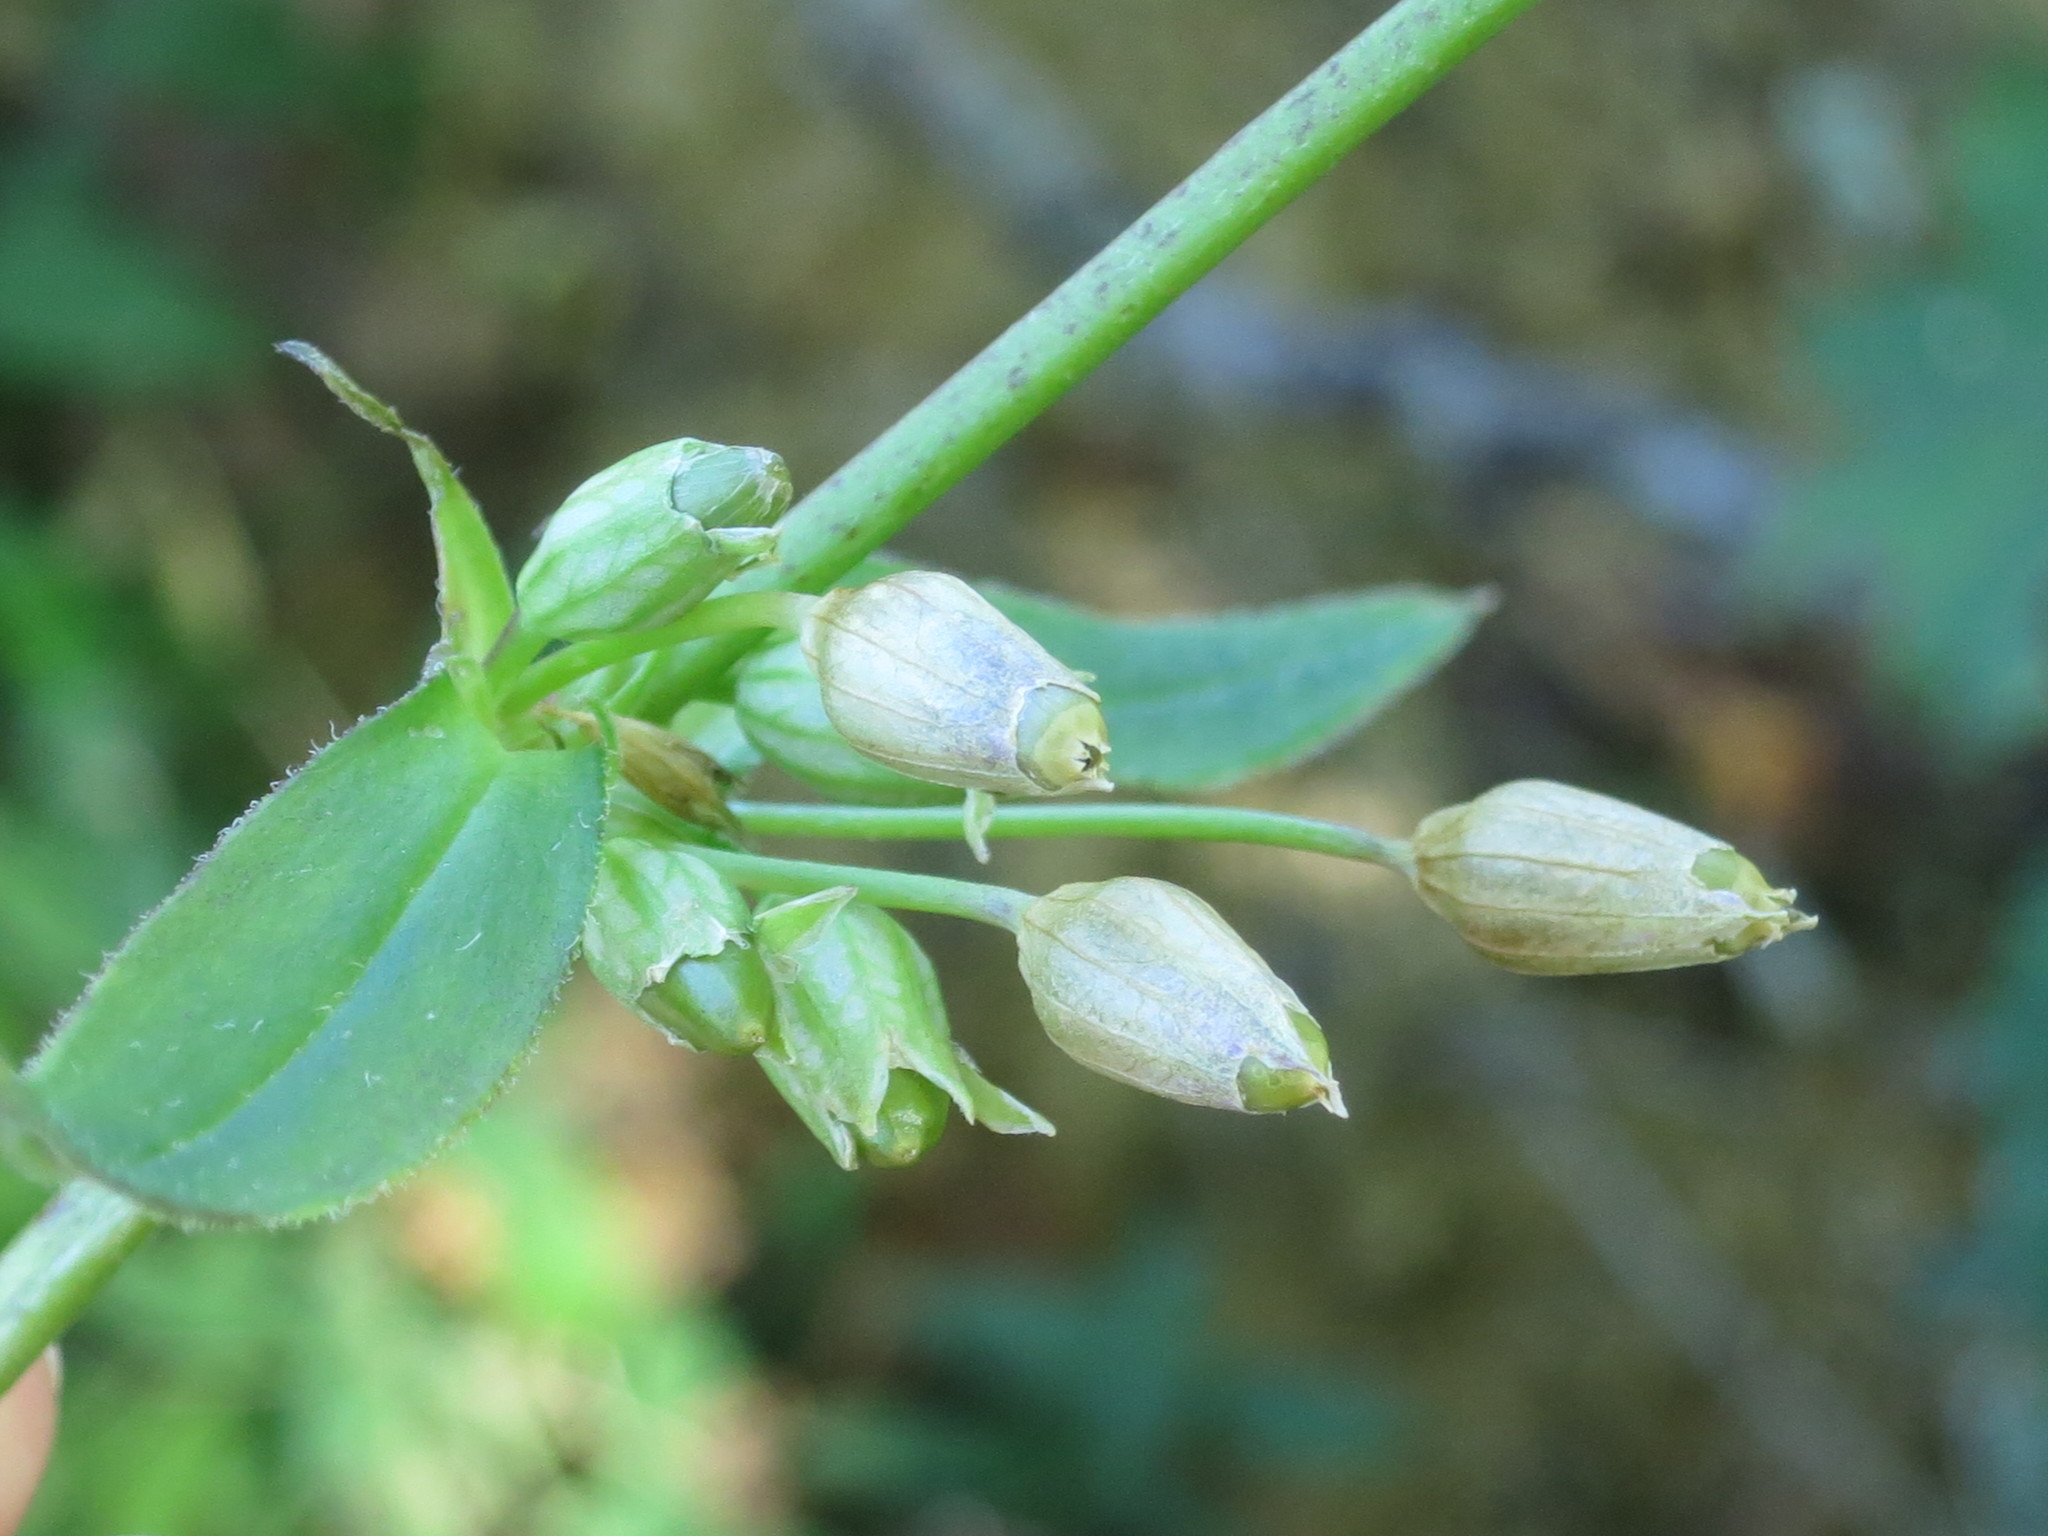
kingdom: Plantae
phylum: Tracheophyta
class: Magnoliopsida
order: Caryophyllales
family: Caryophyllaceae
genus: Silene
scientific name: Silene firma
